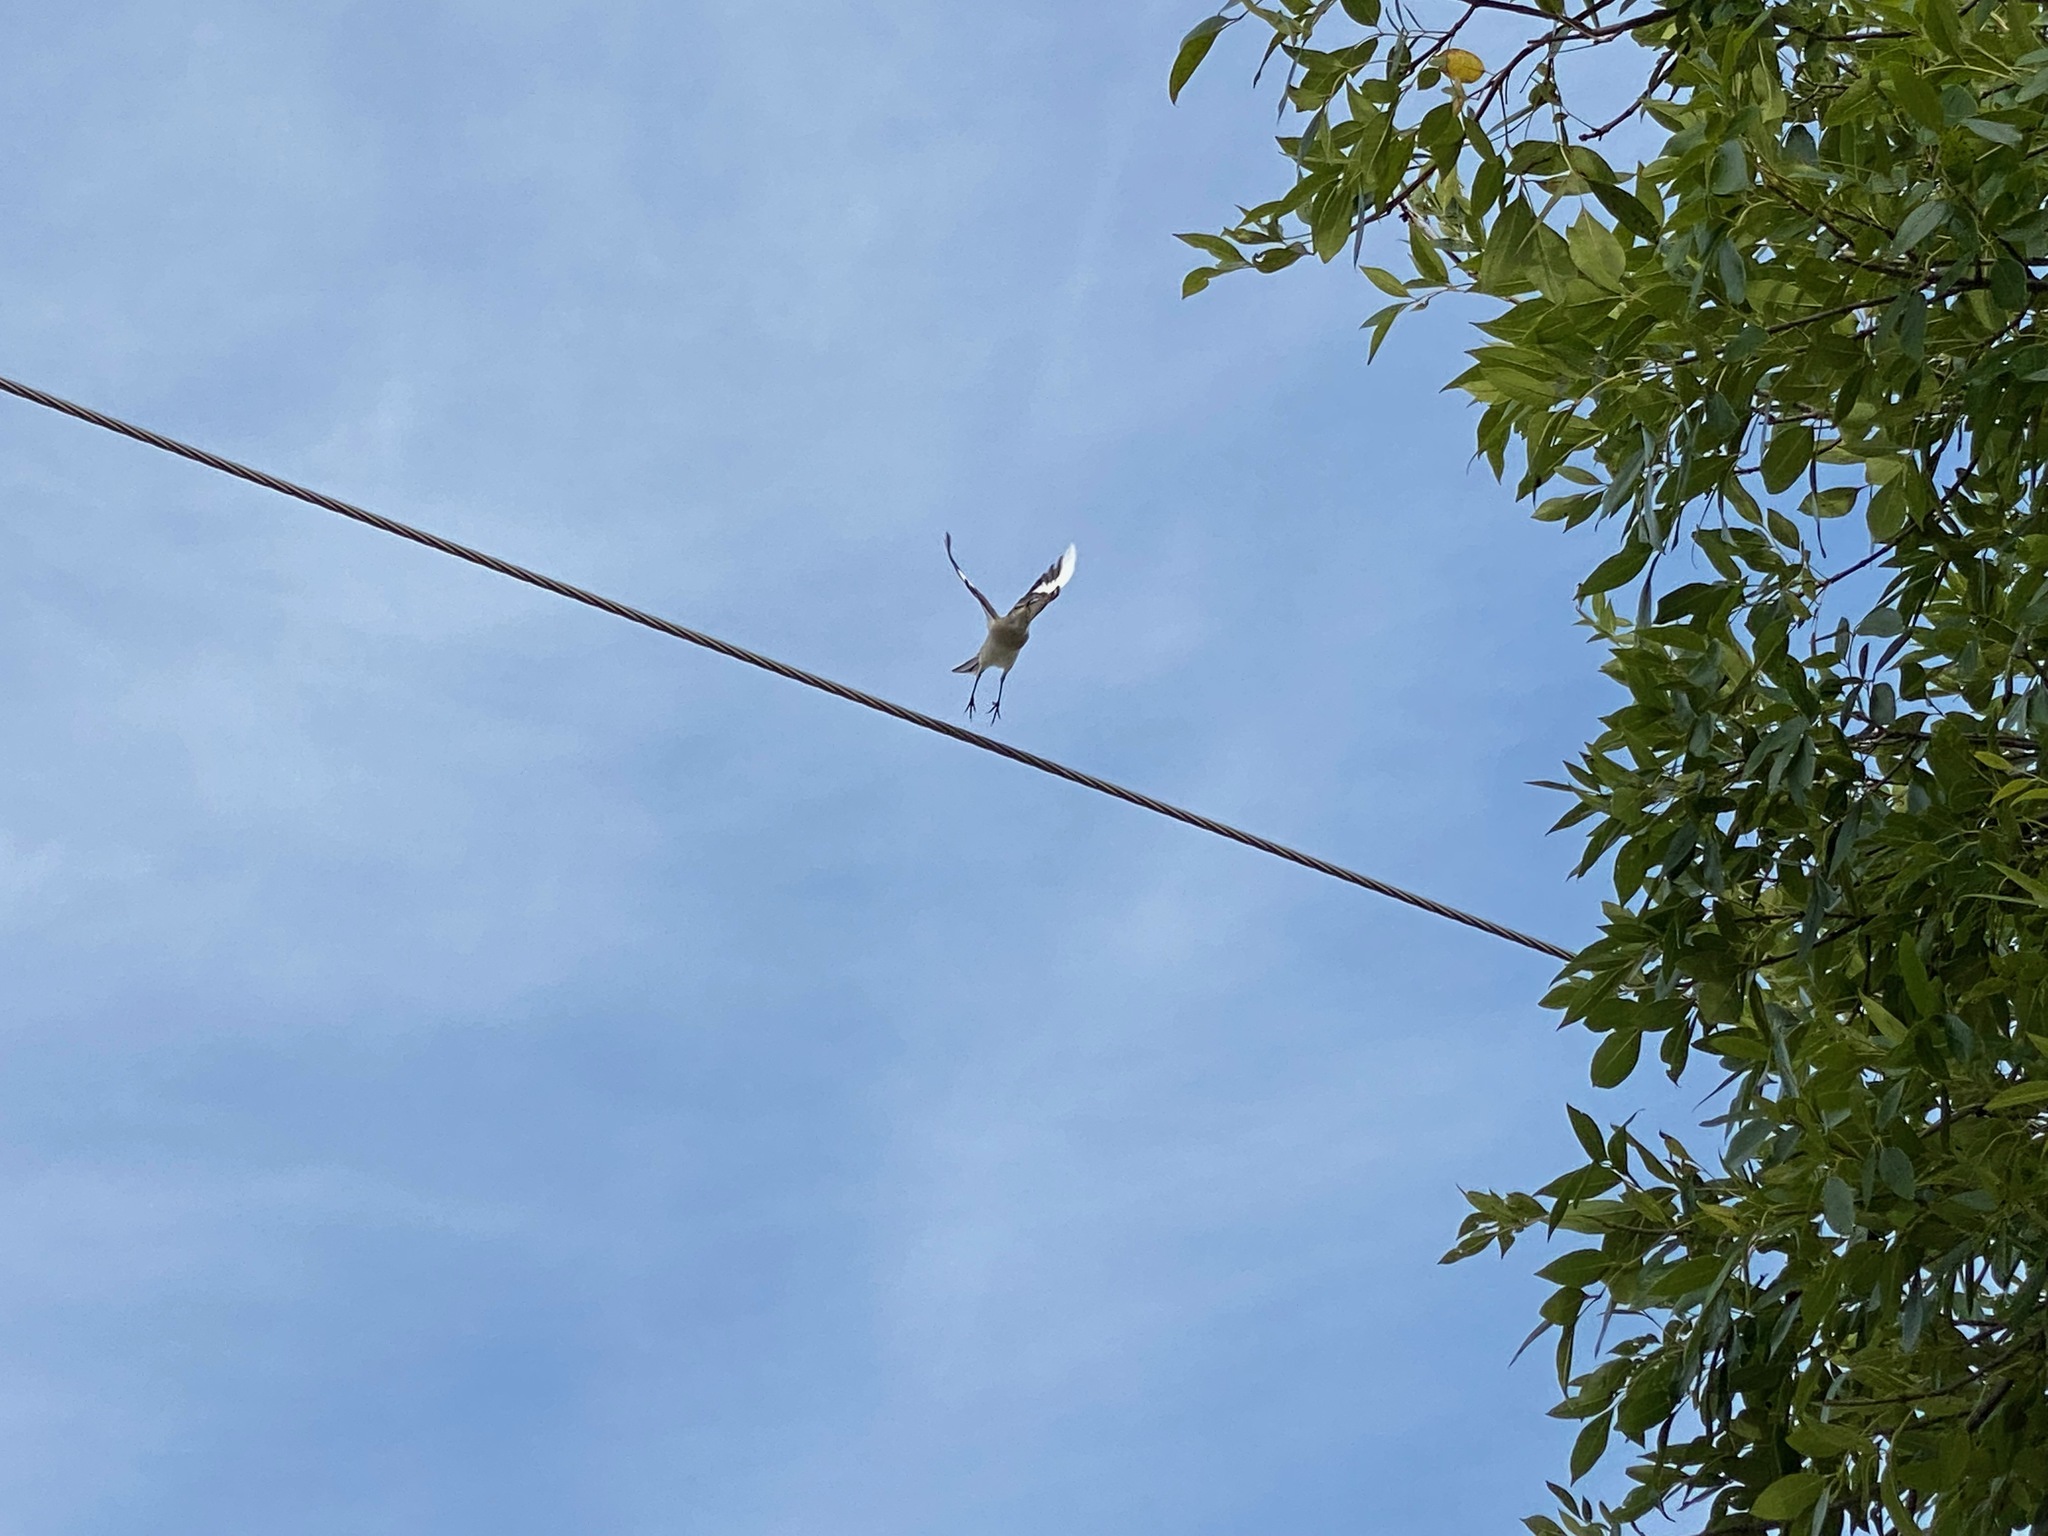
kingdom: Animalia
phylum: Chordata
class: Aves
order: Passeriformes
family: Mimidae
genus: Mimus
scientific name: Mimus polyglottos
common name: Northern mockingbird
